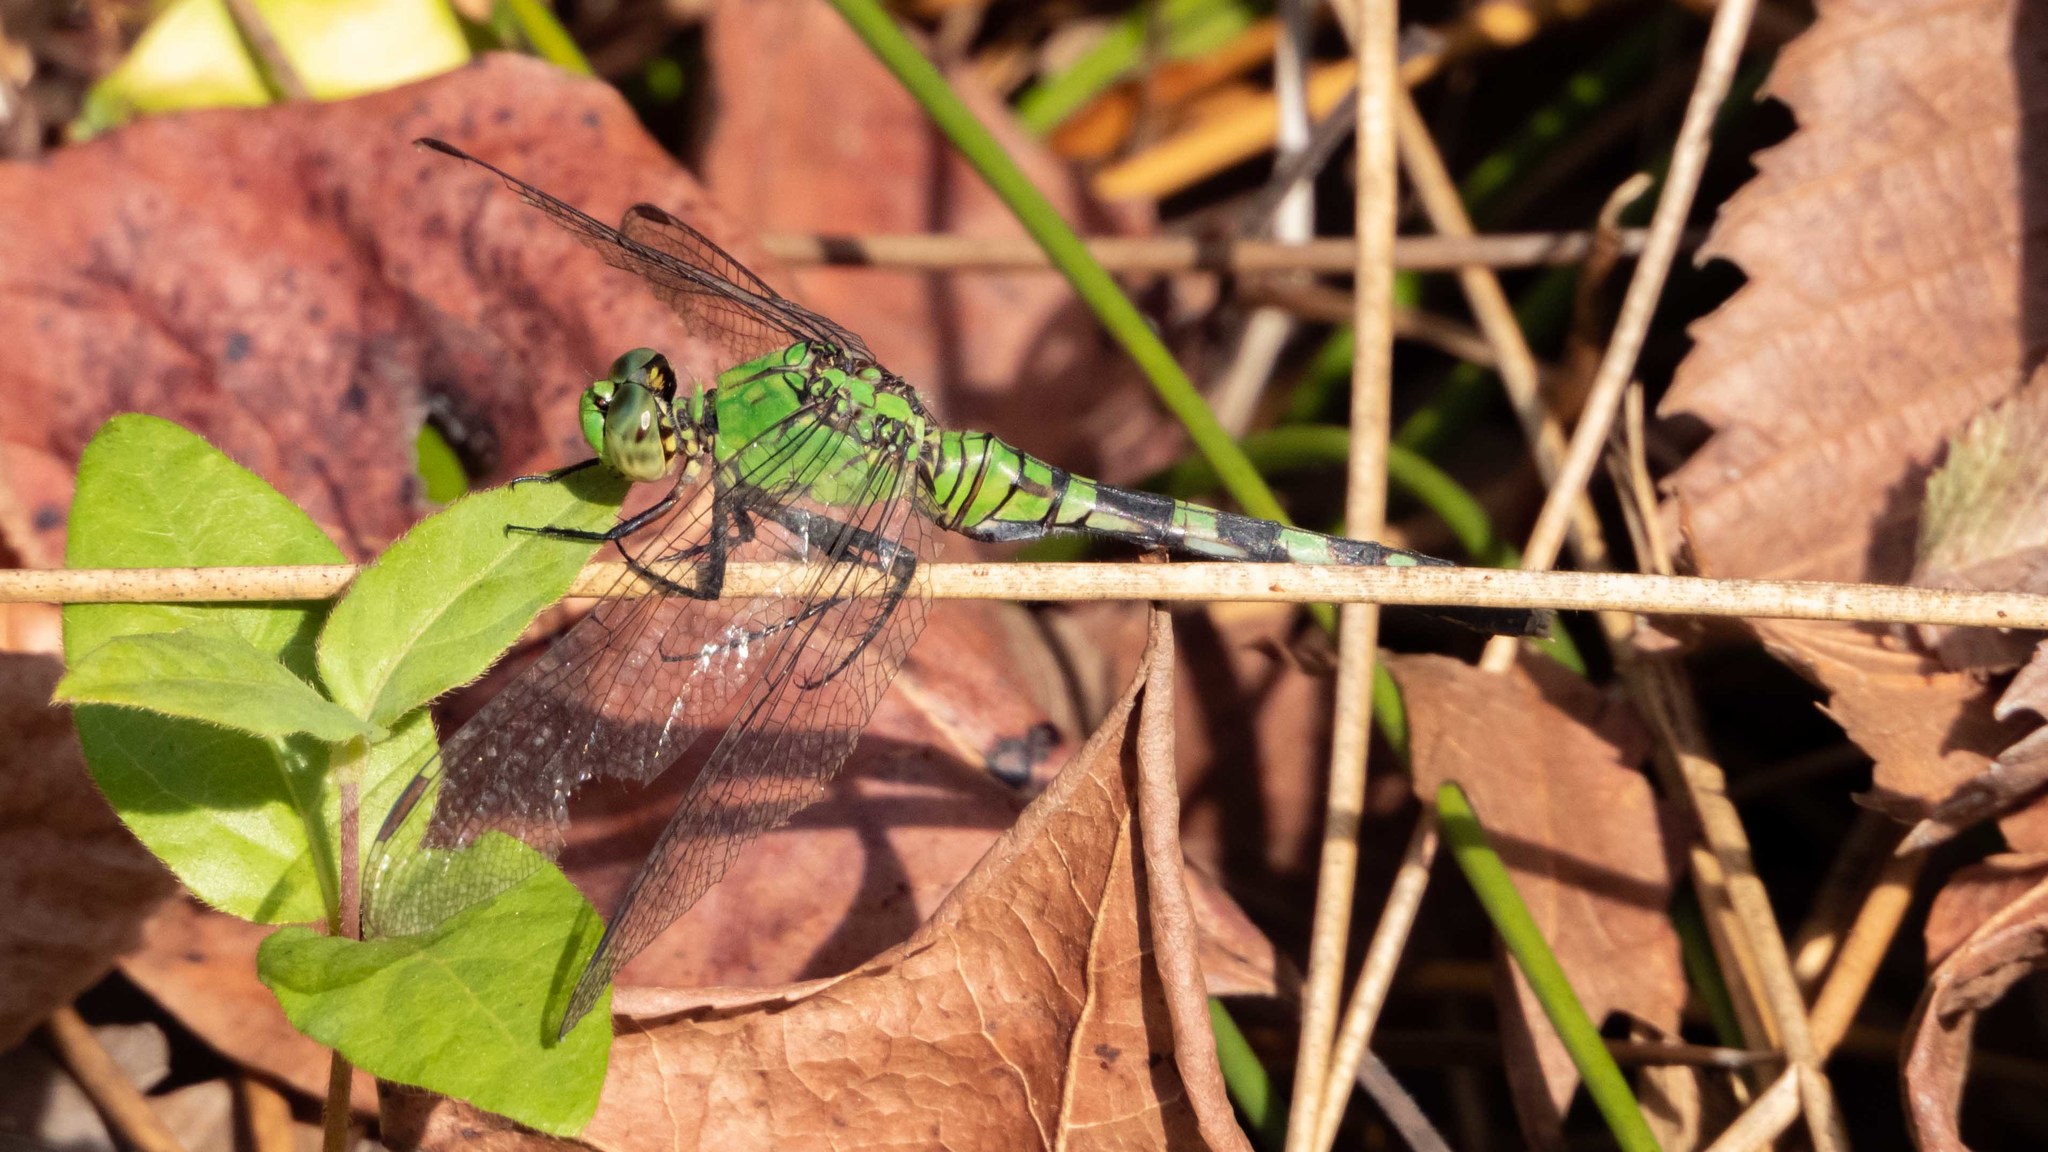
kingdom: Animalia
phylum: Arthropoda
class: Insecta
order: Odonata
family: Libellulidae
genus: Erythemis
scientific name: Erythemis simplicicollis
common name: Eastern pondhawk
